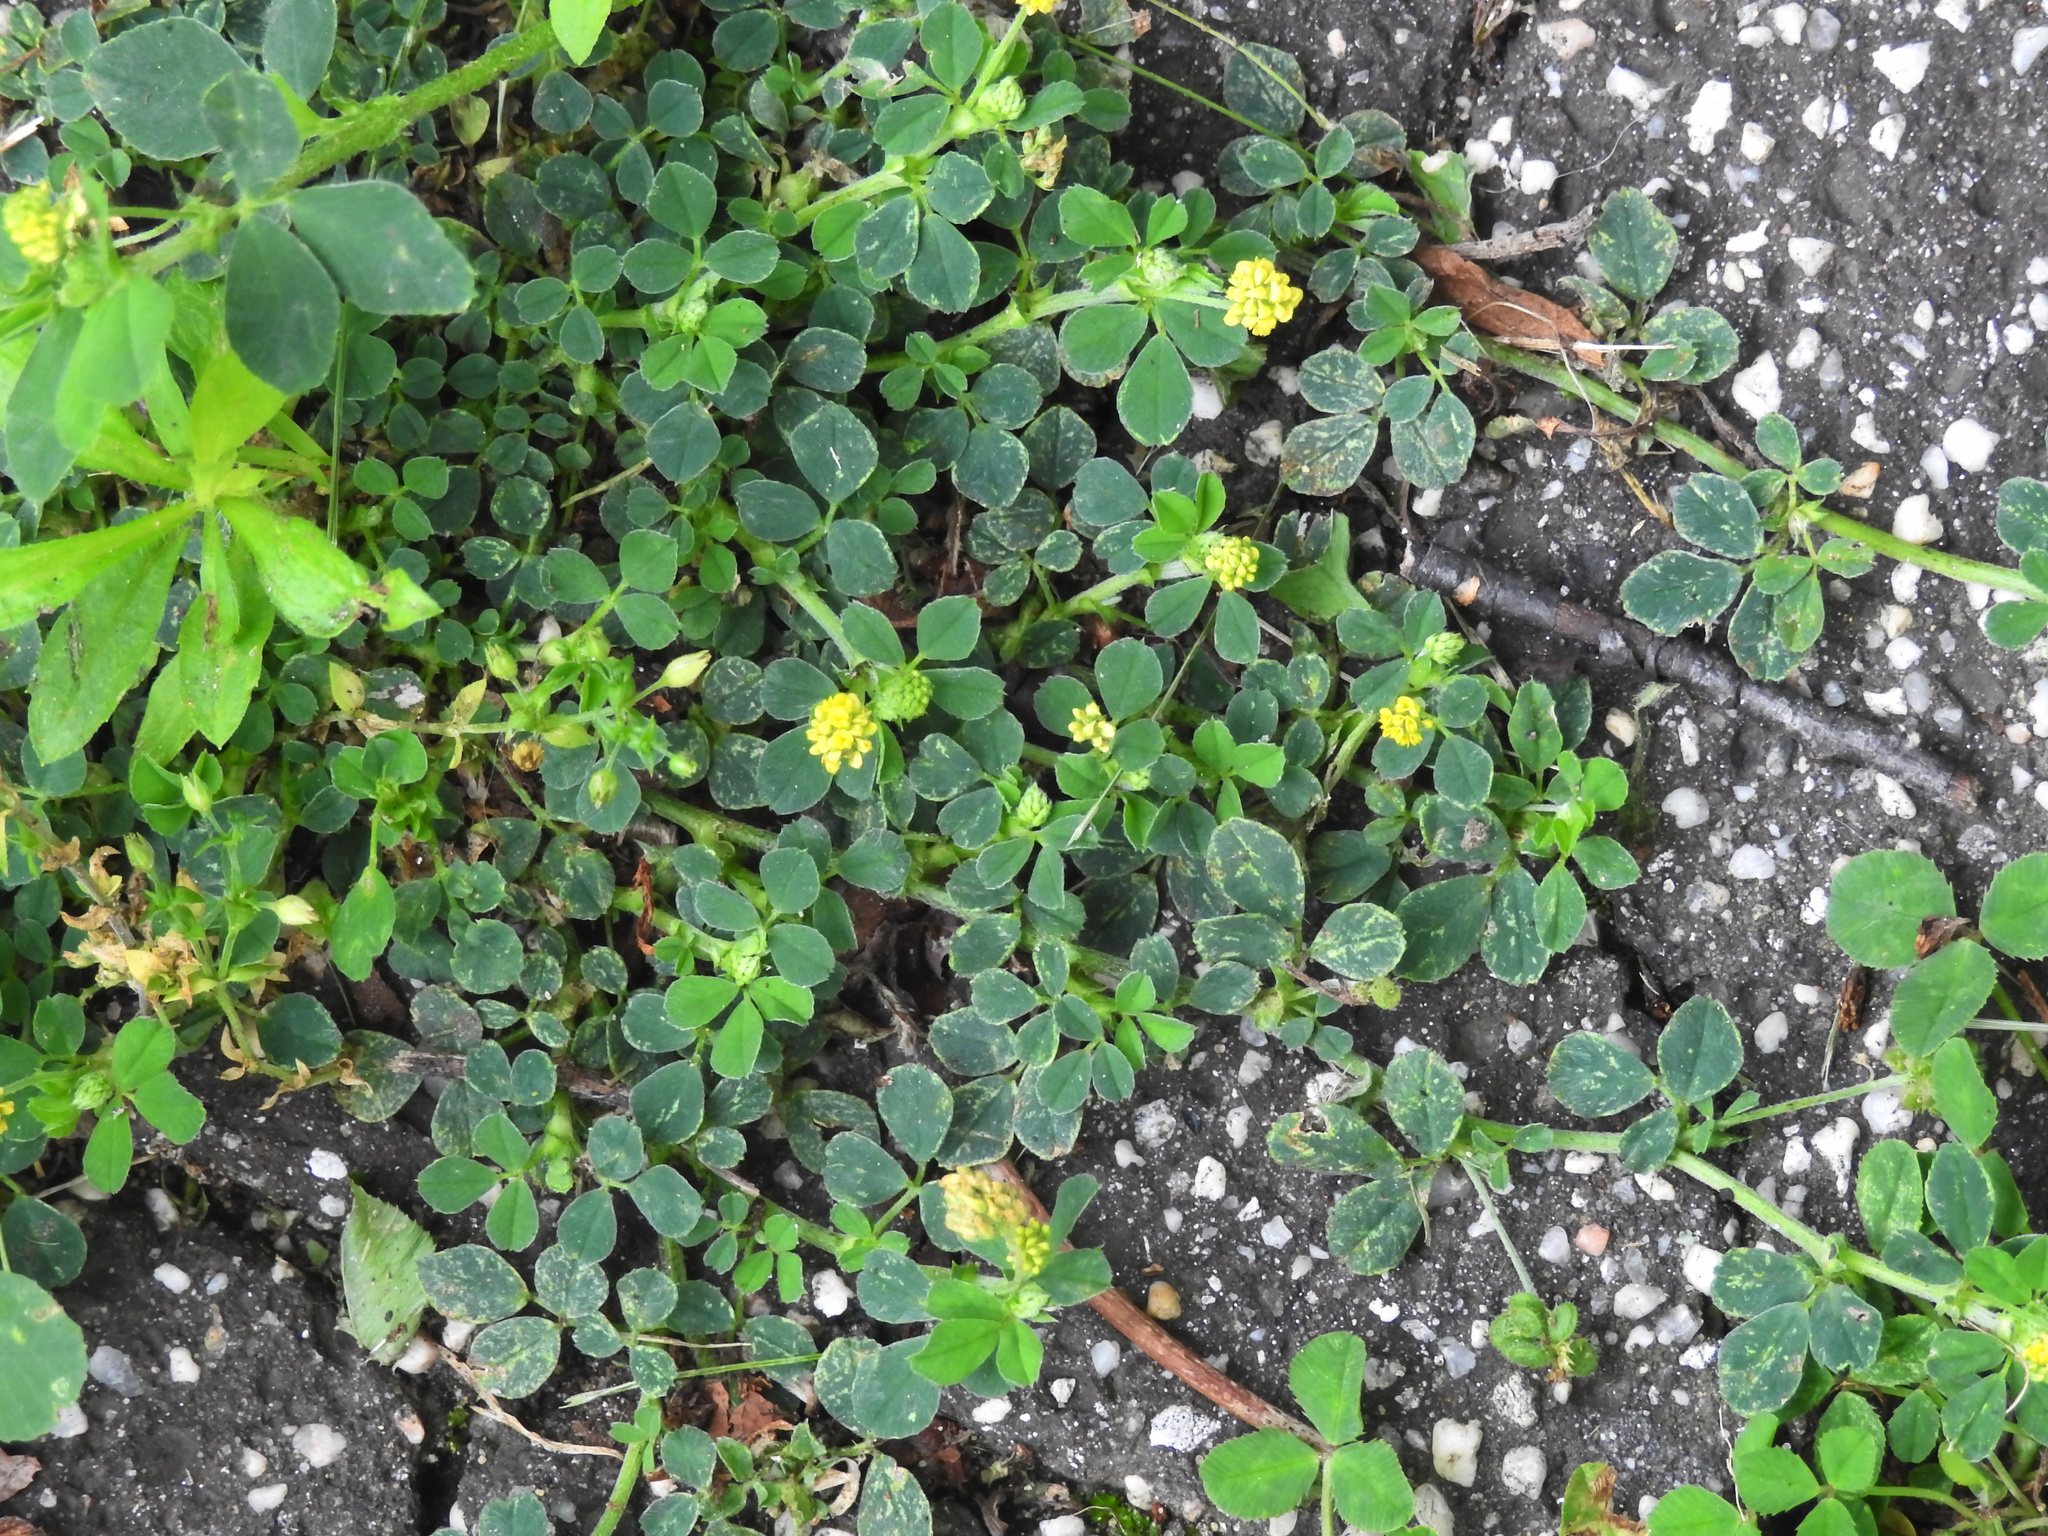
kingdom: Plantae
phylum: Tracheophyta
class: Magnoliopsida
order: Fabales
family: Fabaceae
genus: Medicago
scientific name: Medicago lupulina
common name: Black medick
